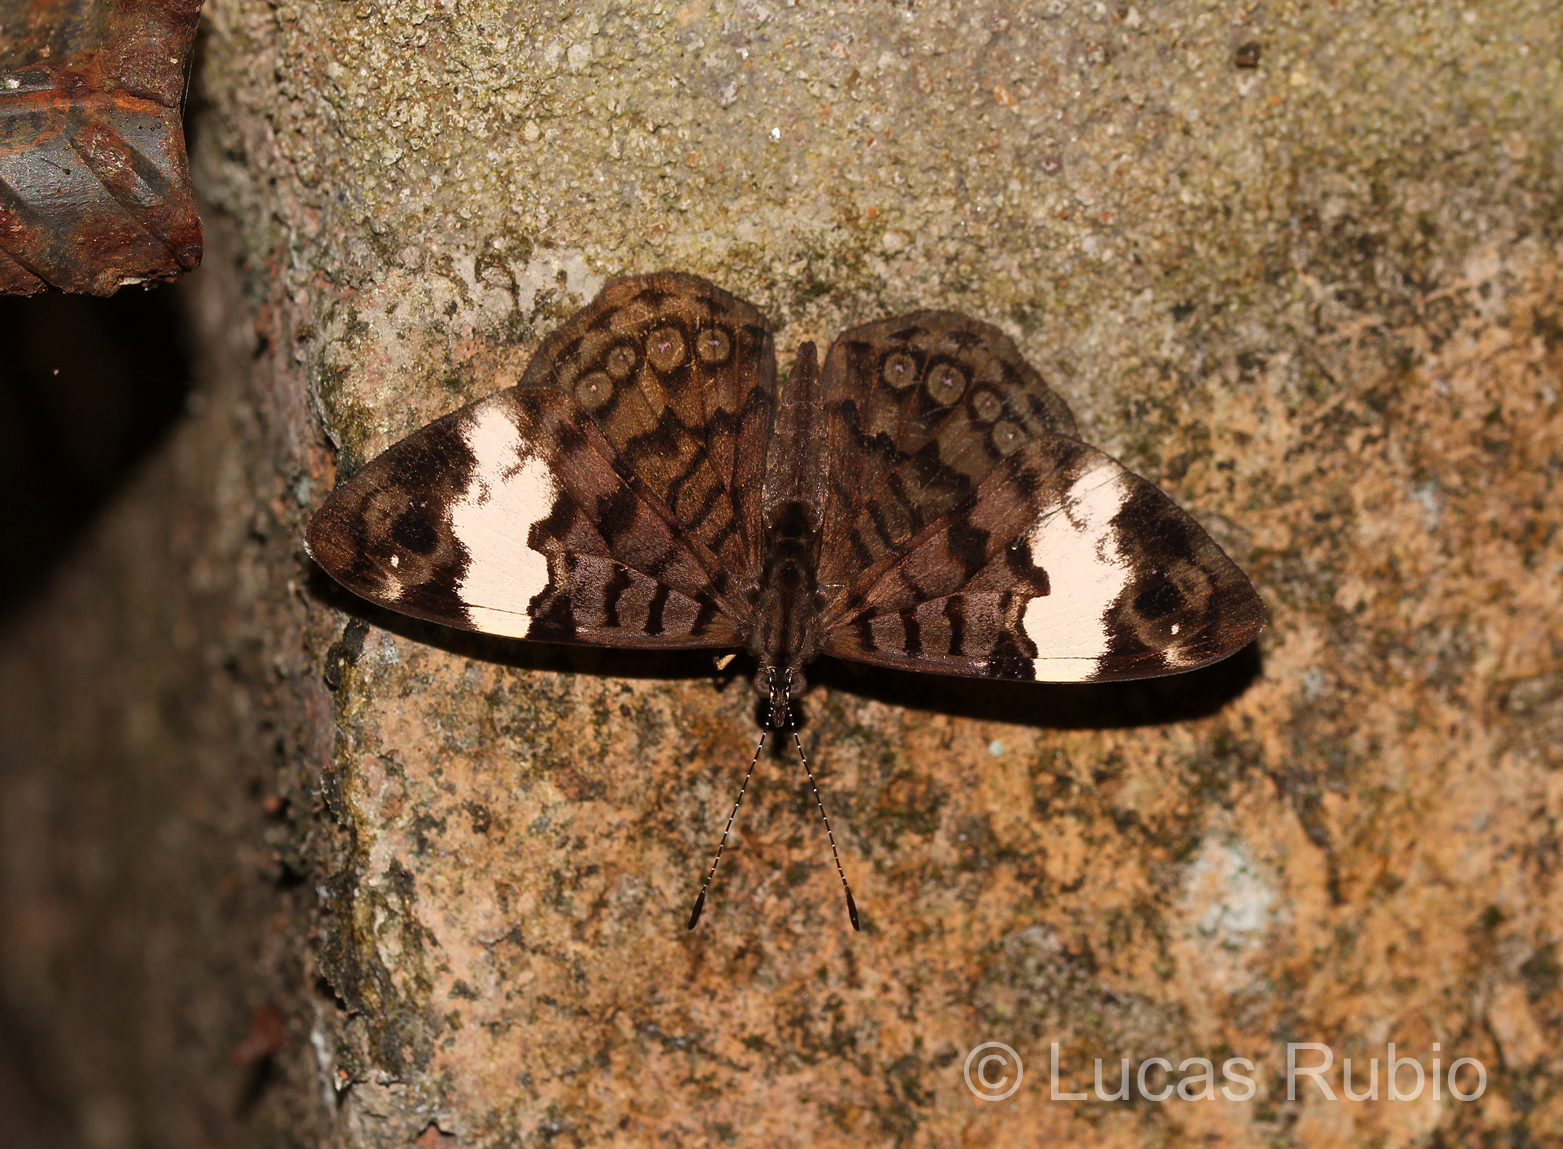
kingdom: Animalia
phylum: Arthropoda
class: Insecta
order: Lepidoptera
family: Nymphalidae
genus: Ectima
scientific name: Ectima thecla
